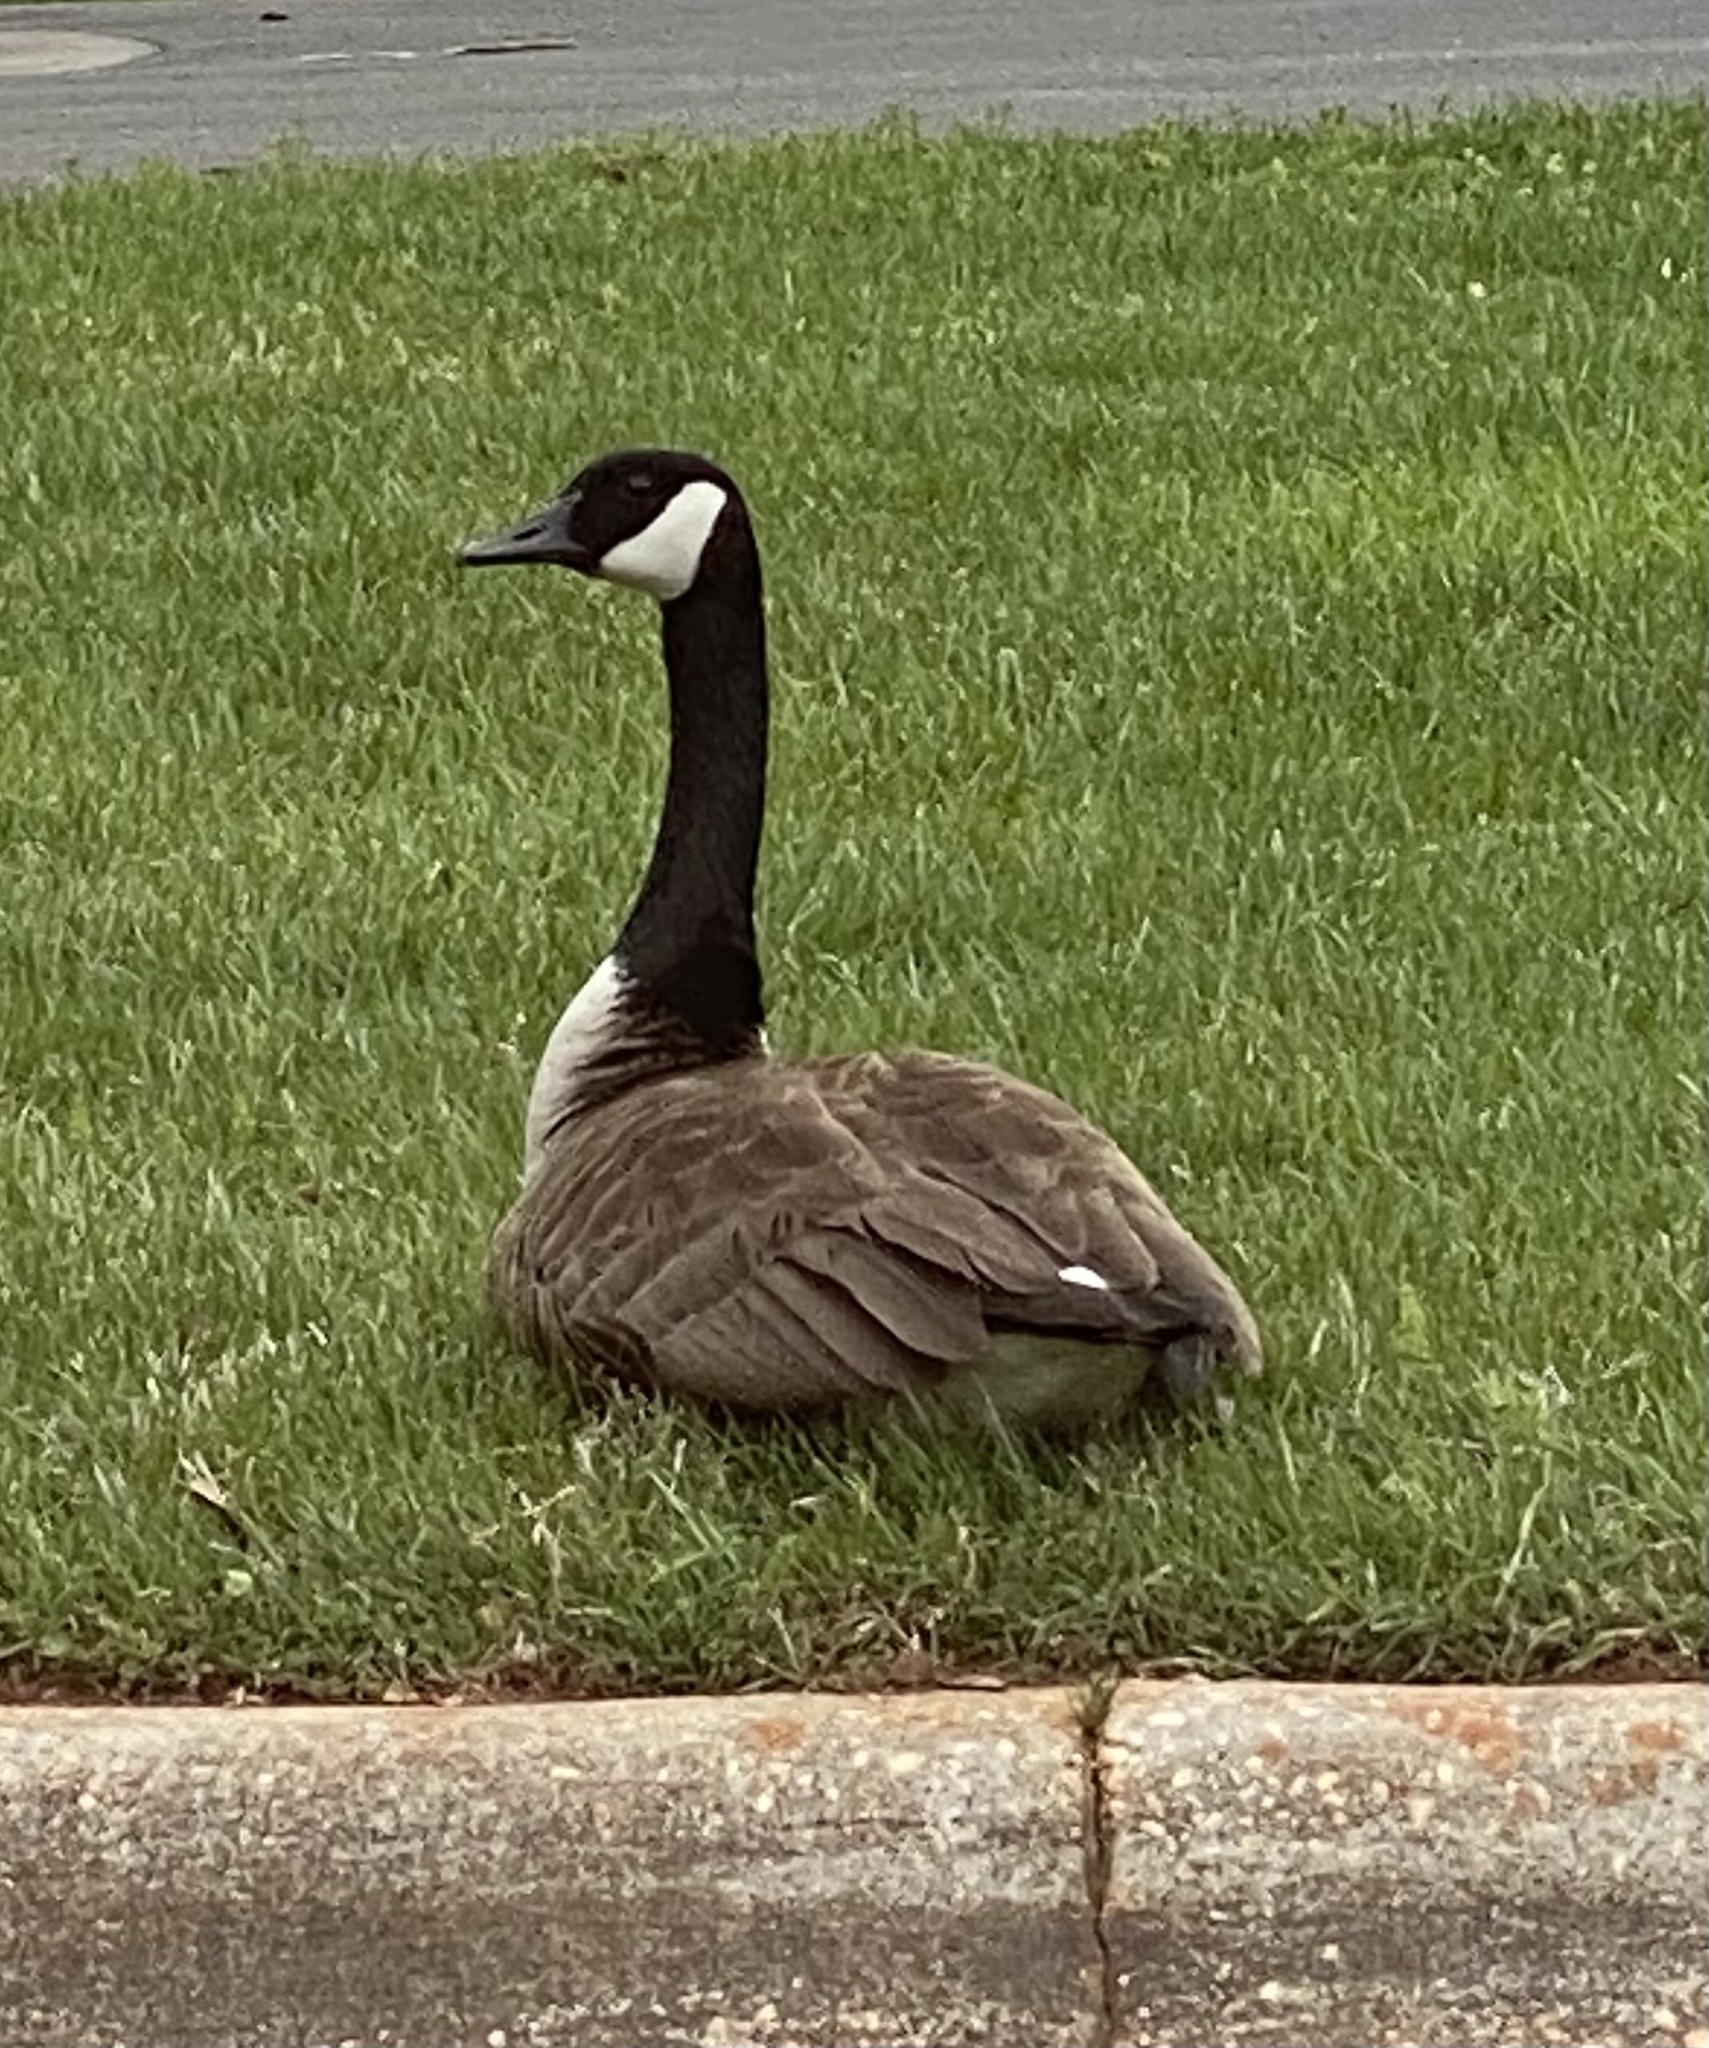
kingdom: Animalia
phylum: Chordata
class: Aves
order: Anseriformes
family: Anatidae
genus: Branta
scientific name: Branta canadensis
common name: Canada goose
